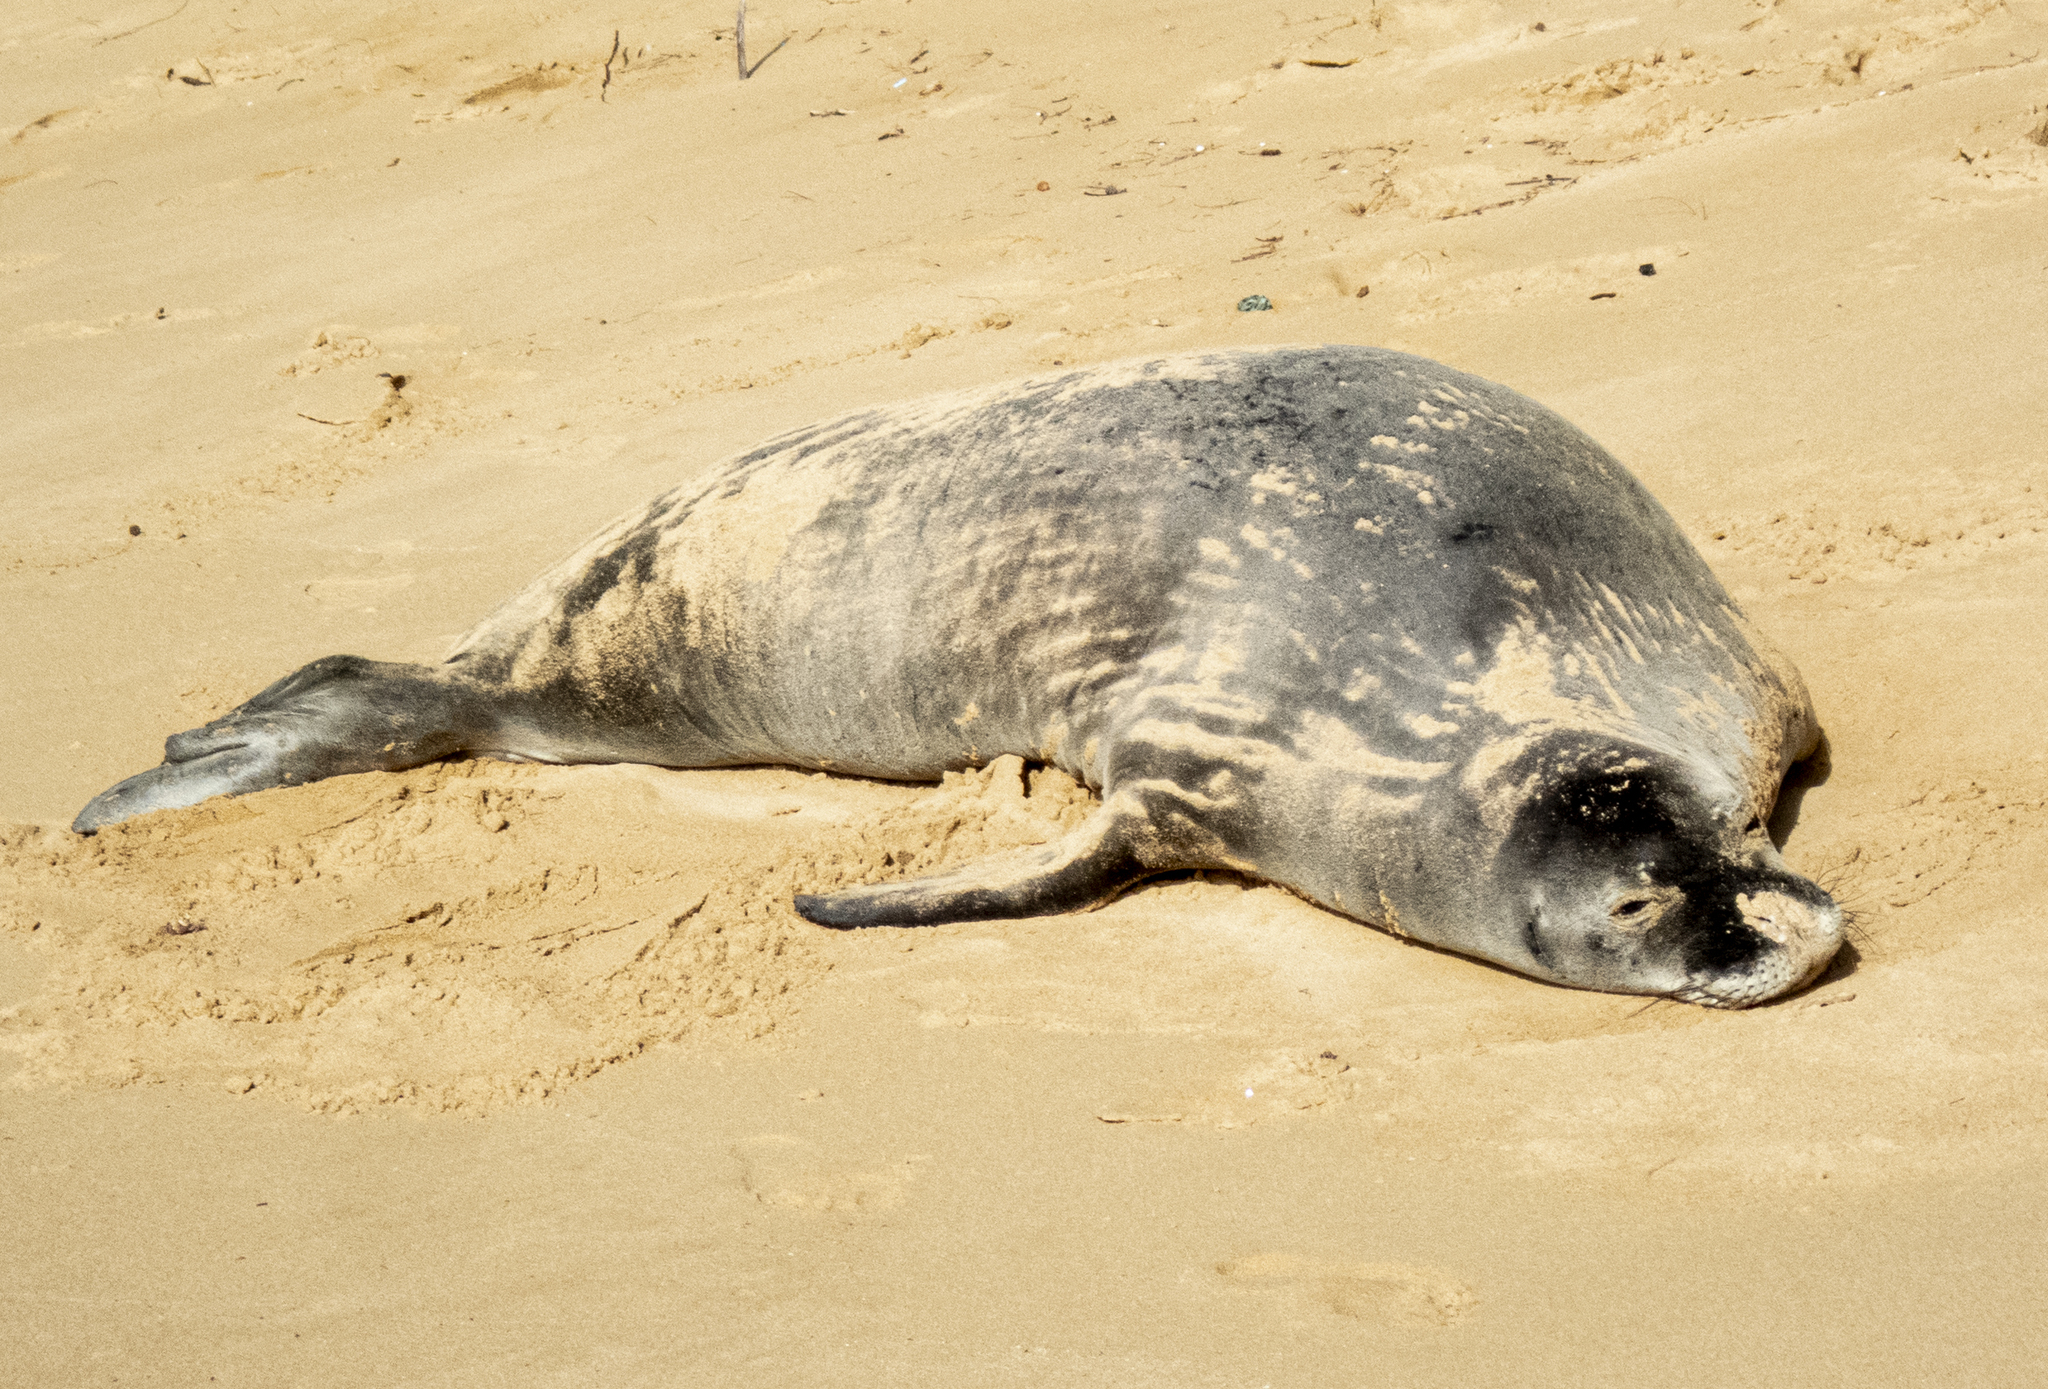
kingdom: Animalia
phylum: Chordata
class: Mammalia
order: Carnivora
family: Phocidae
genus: Neomonachus
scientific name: Neomonachus schauinslandi
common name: Hawaiian monk seal
